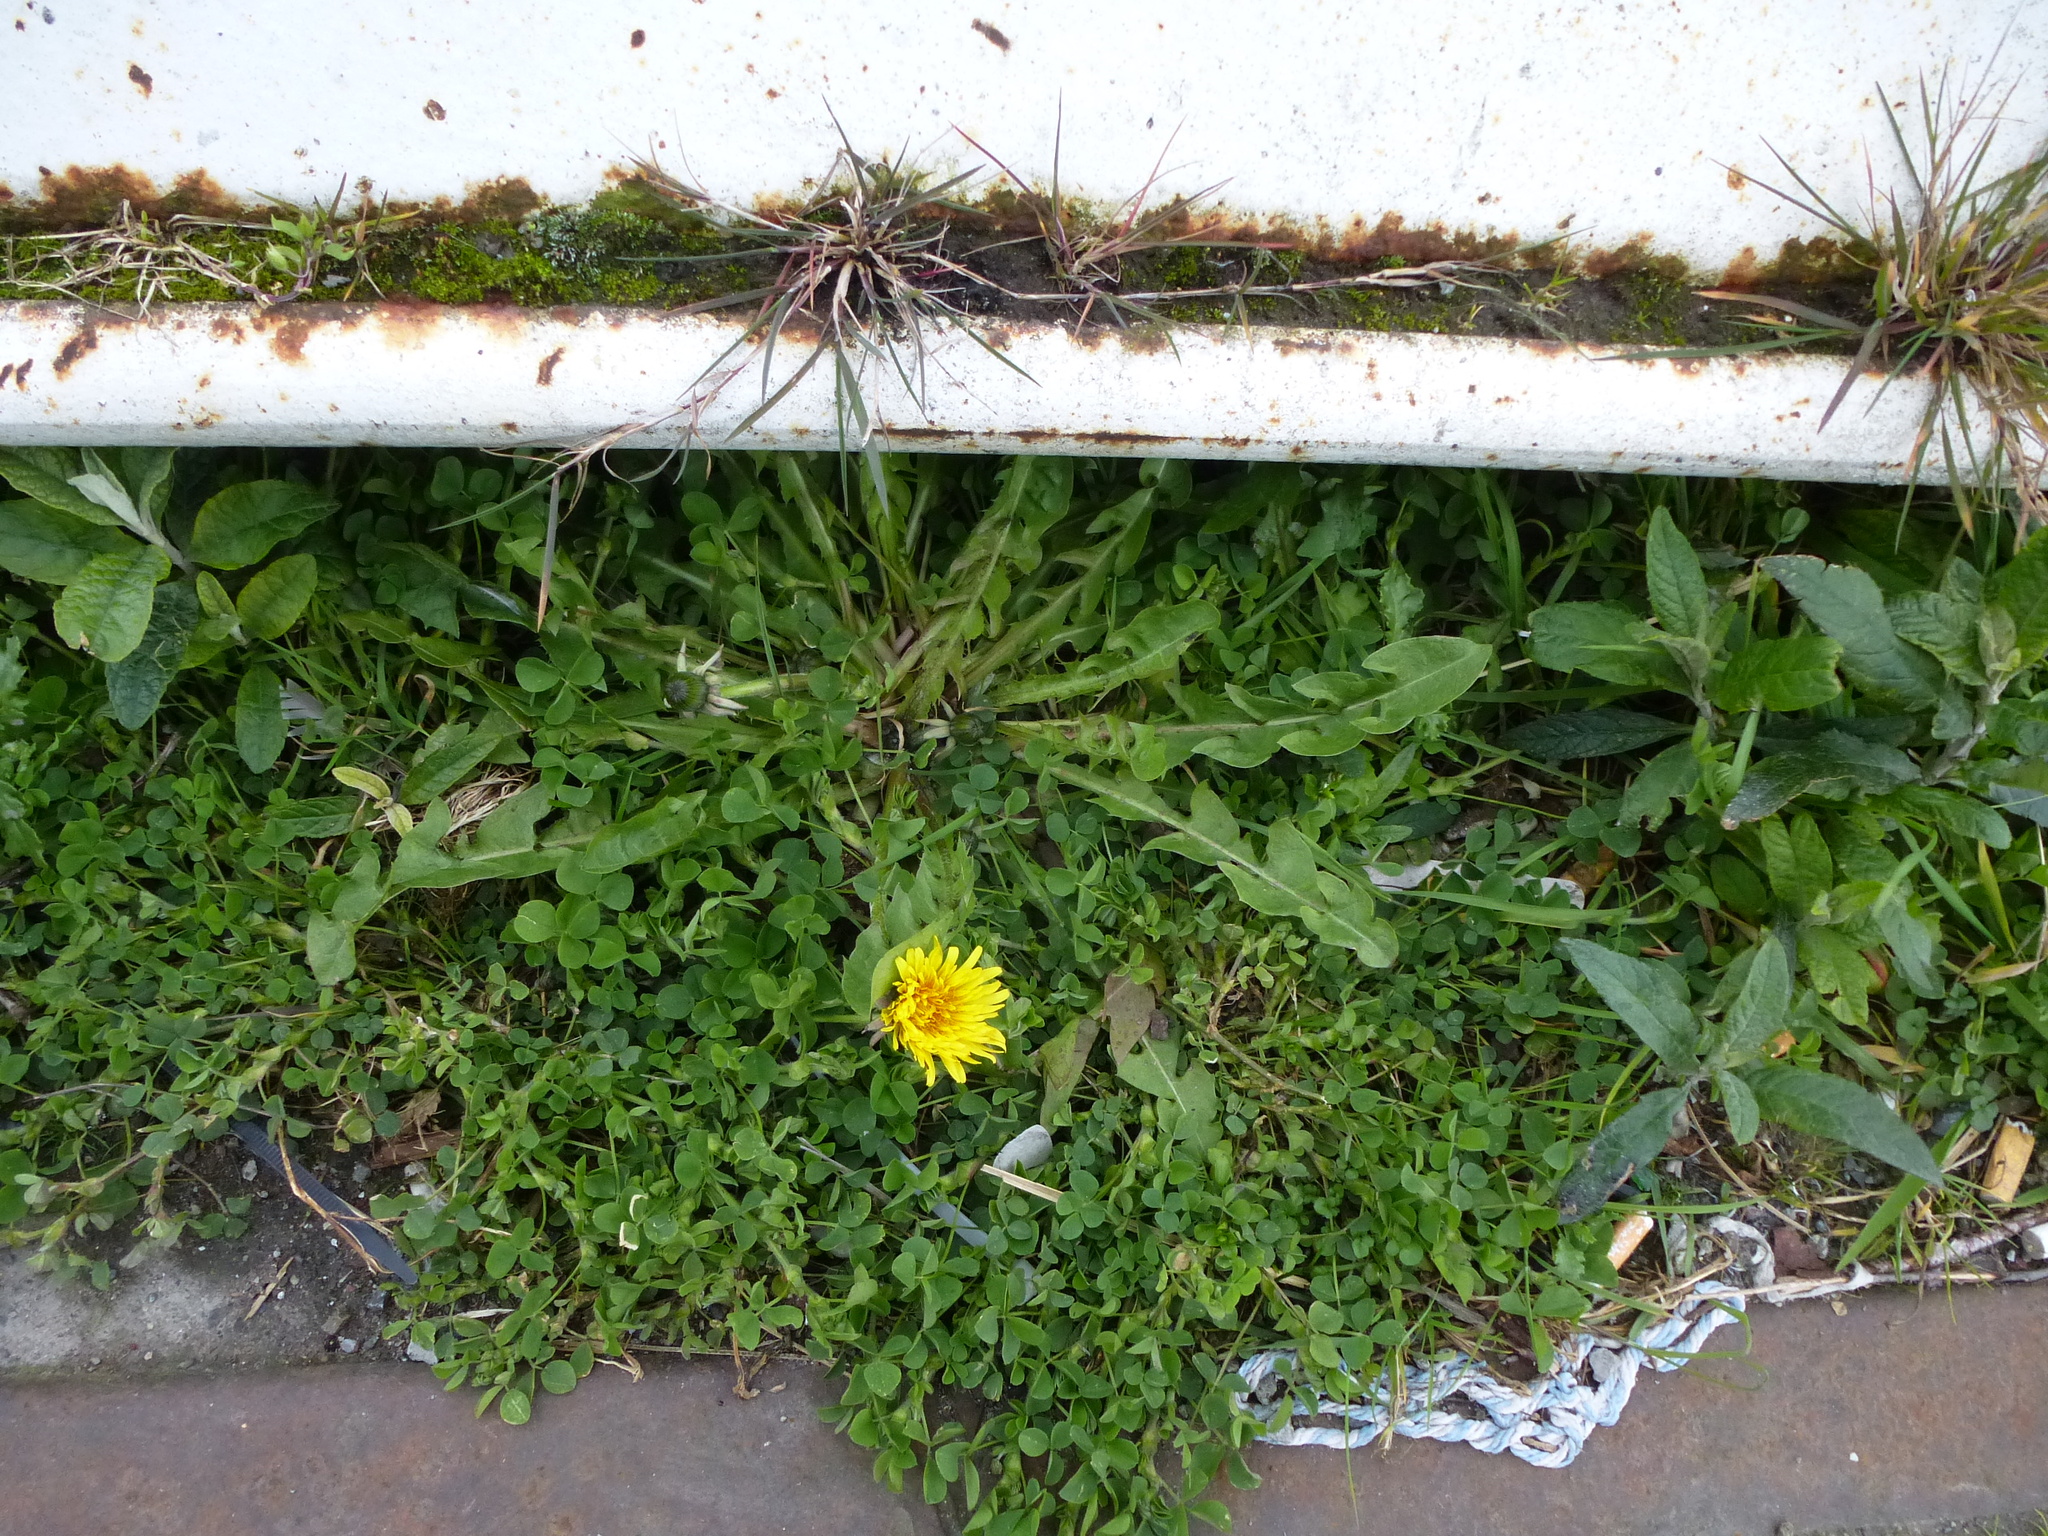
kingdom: Plantae
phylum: Tracheophyta
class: Magnoliopsida
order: Asterales
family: Asteraceae
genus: Taraxacum
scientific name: Taraxacum officinale
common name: Common dandelion
